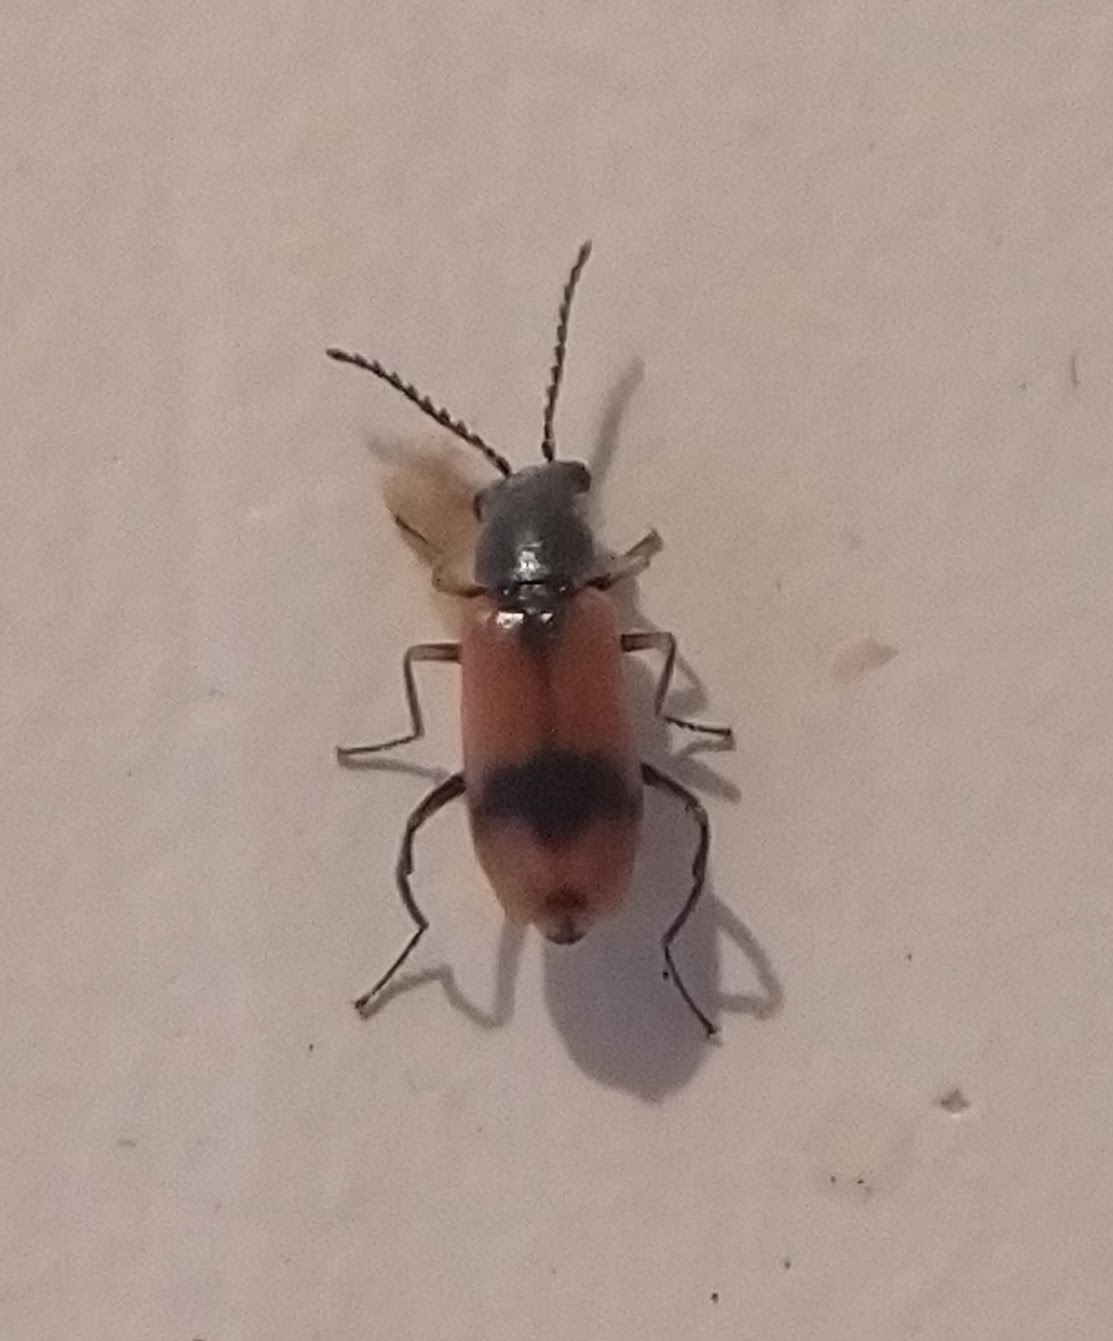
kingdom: Animalia
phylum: Arthropoda
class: Insecta
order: Coleoptera
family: Melyridae
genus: Anthocomus
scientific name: Anthocomus equestris
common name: Black-banded soft-winged flower beetle
